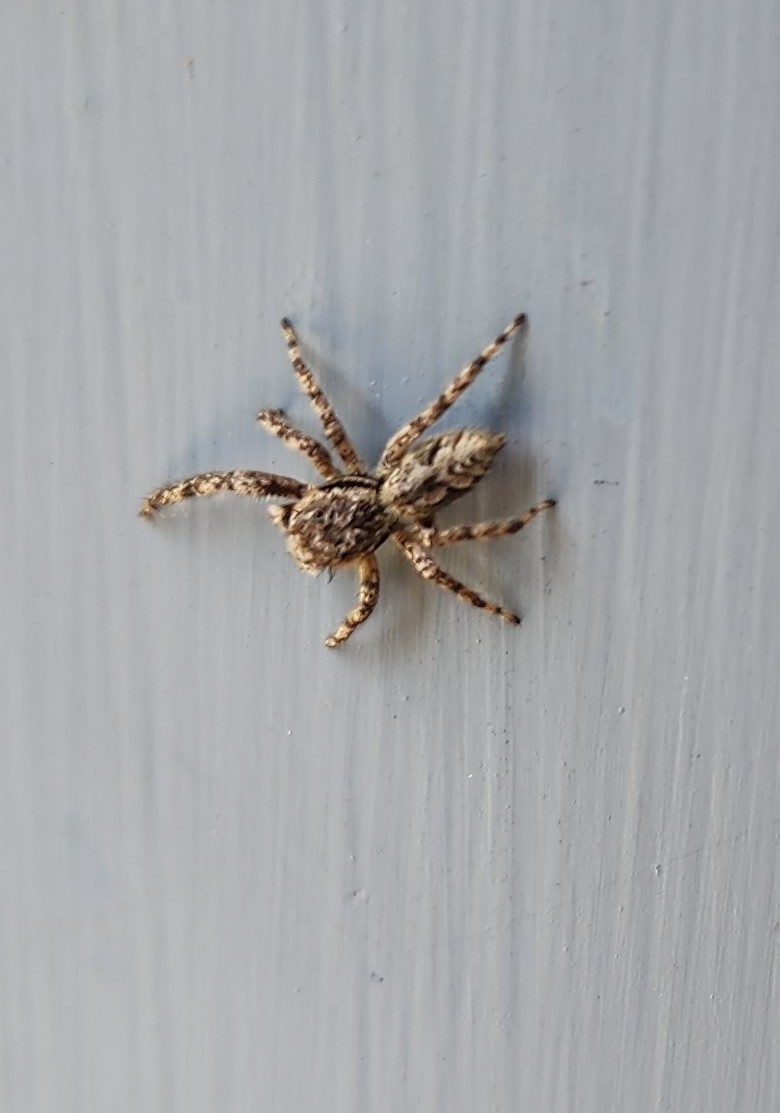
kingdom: Animalia
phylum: Arthropoda
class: Arachnida
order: Araneae
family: Salticidae
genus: Platycryptus
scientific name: Platycryptus undatus
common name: Tan jumping spider
